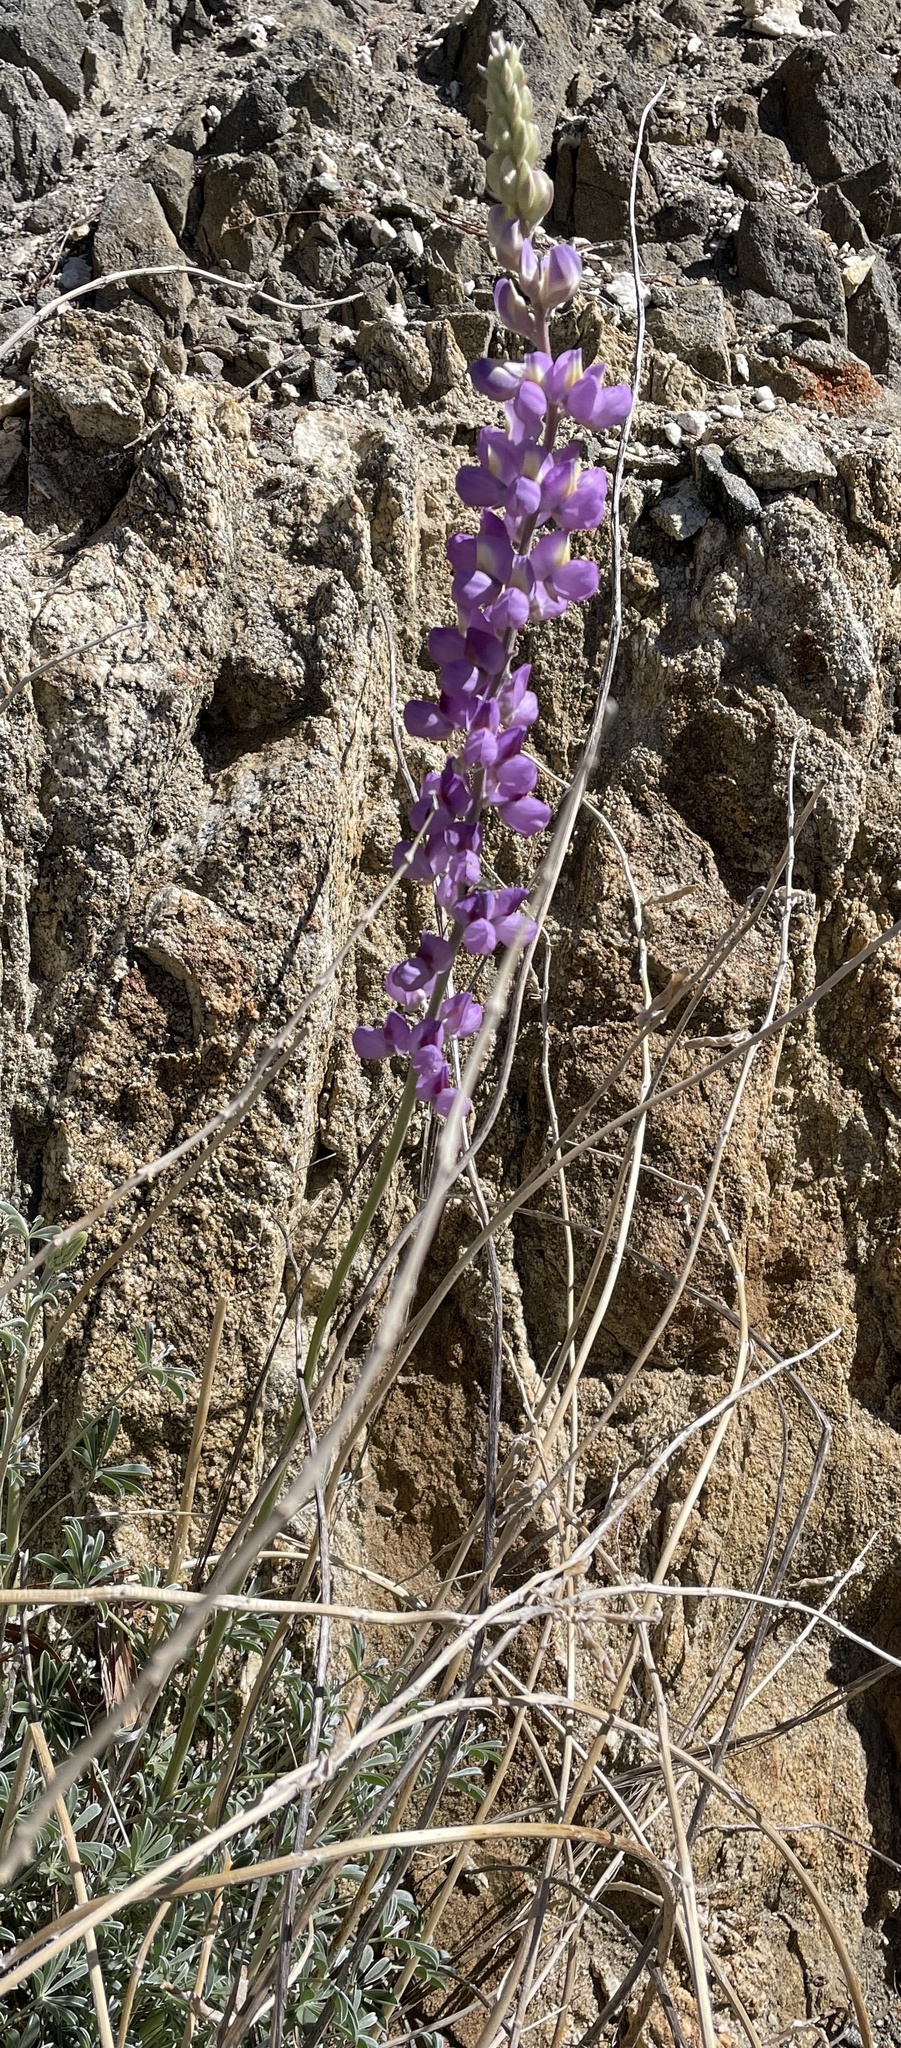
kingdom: Plantae
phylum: Tracheophyta
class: Magnoliopsida
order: Fabales
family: Fabaceae
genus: Lupinus
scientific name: Lupinus excubitus
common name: Grape soda lupine
